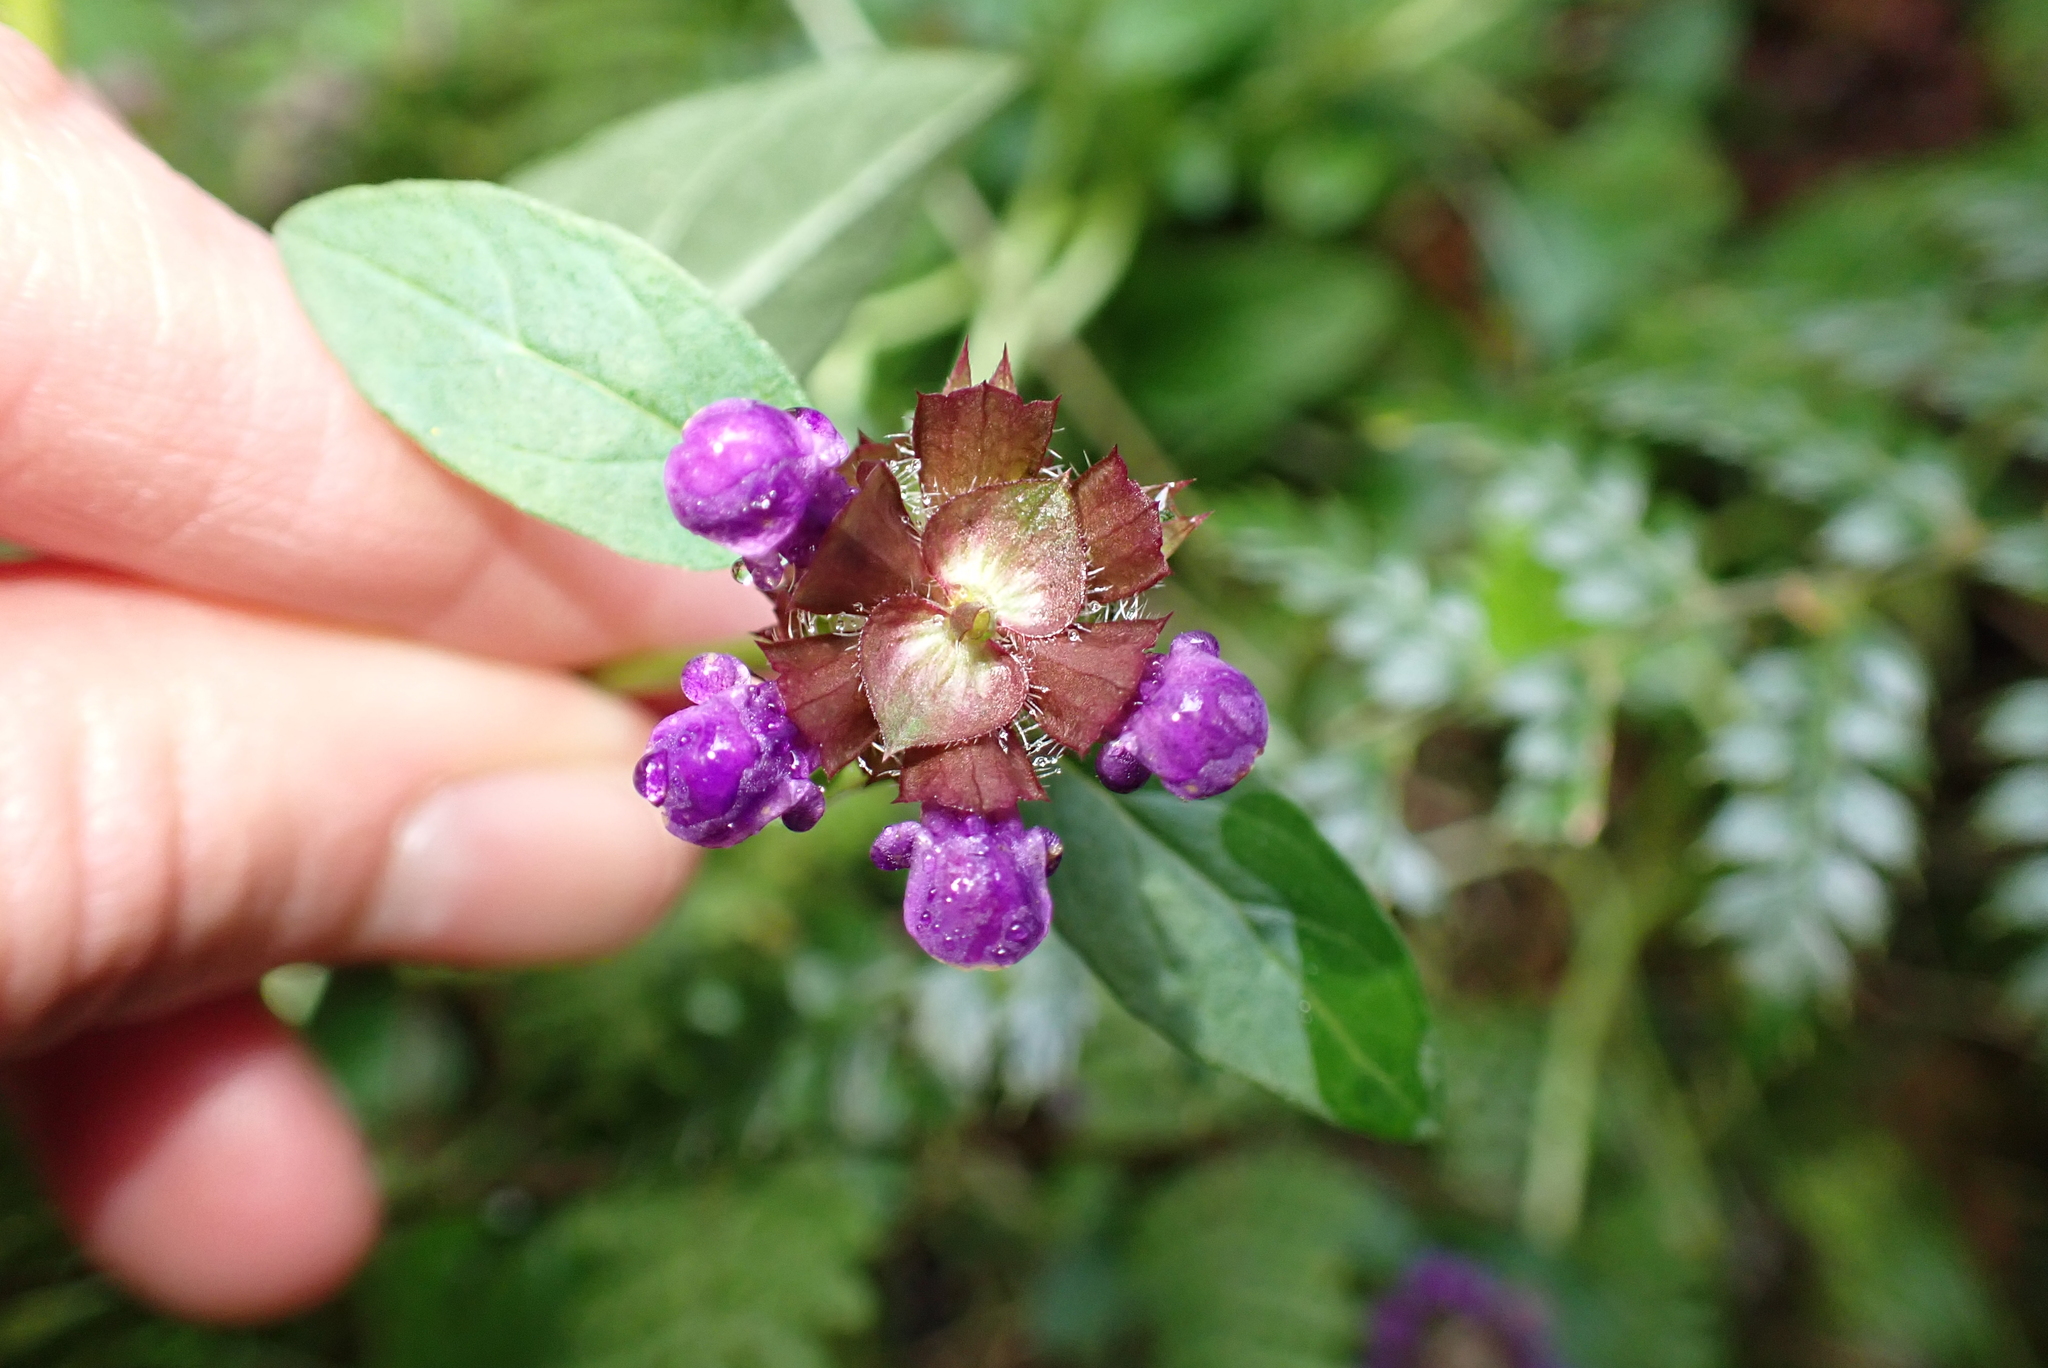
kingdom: Plantae
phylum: Tracheophyta
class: Magnoliopsida
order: Lamiales
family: Lamiaceae
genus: Prunella
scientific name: Prunella vulgaris
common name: Heal-all
